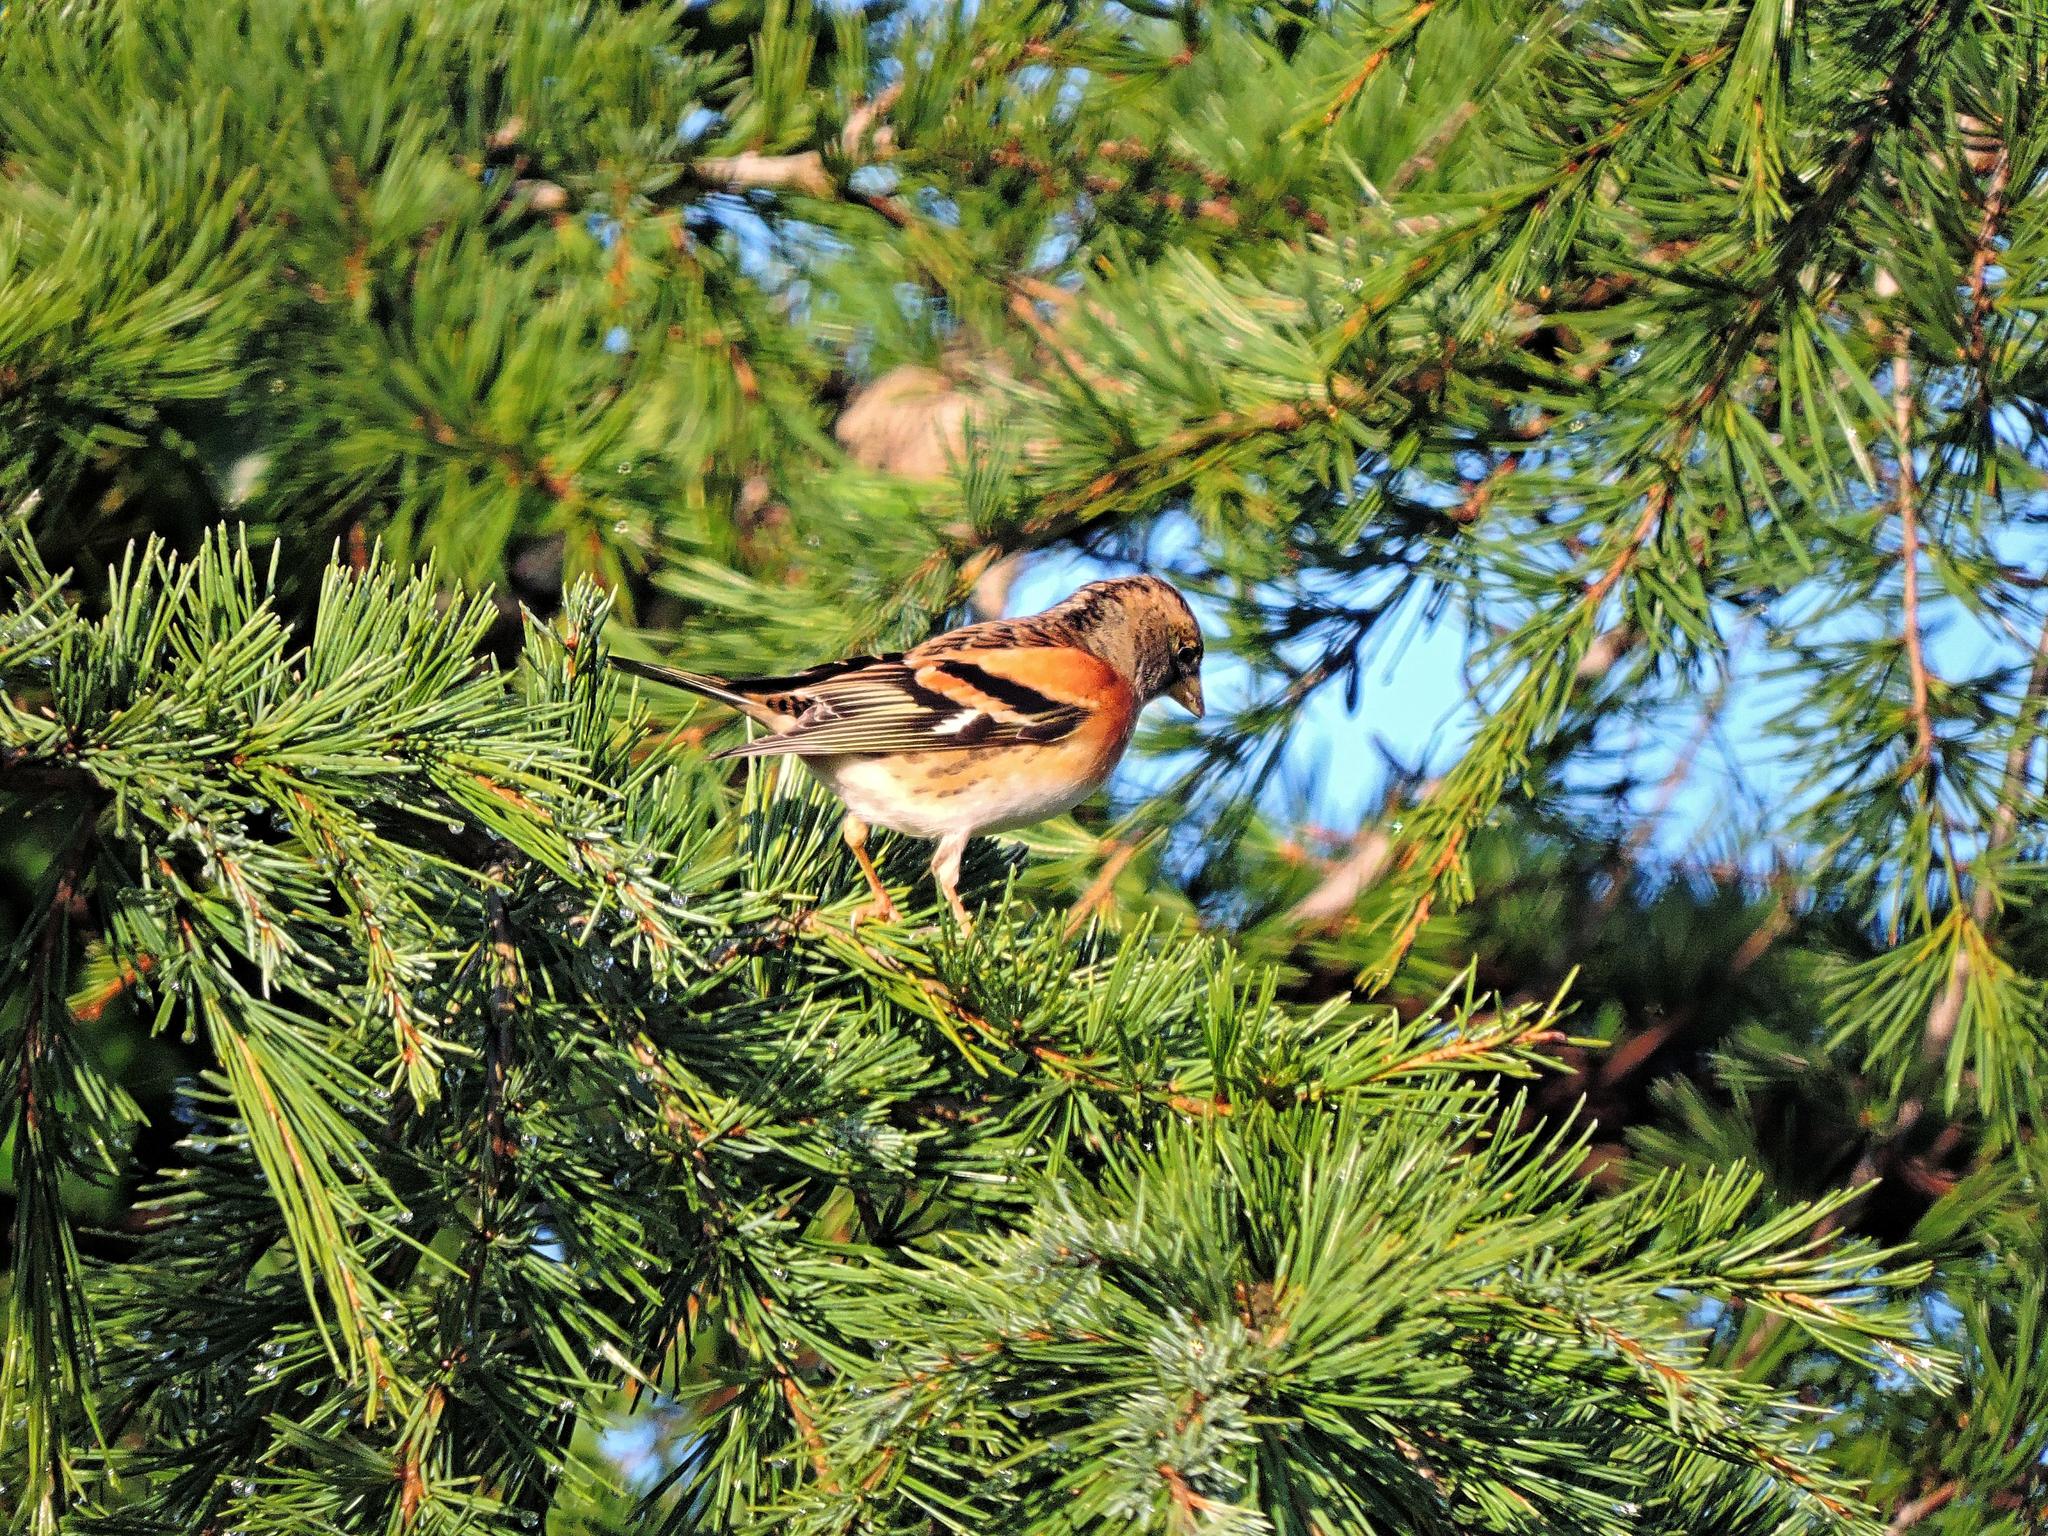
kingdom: Animalia
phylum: Chordata
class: Aves
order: Passeriformes
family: Fringillidae
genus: Fringilla
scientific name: Fringilla montifringilla
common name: Brambling
